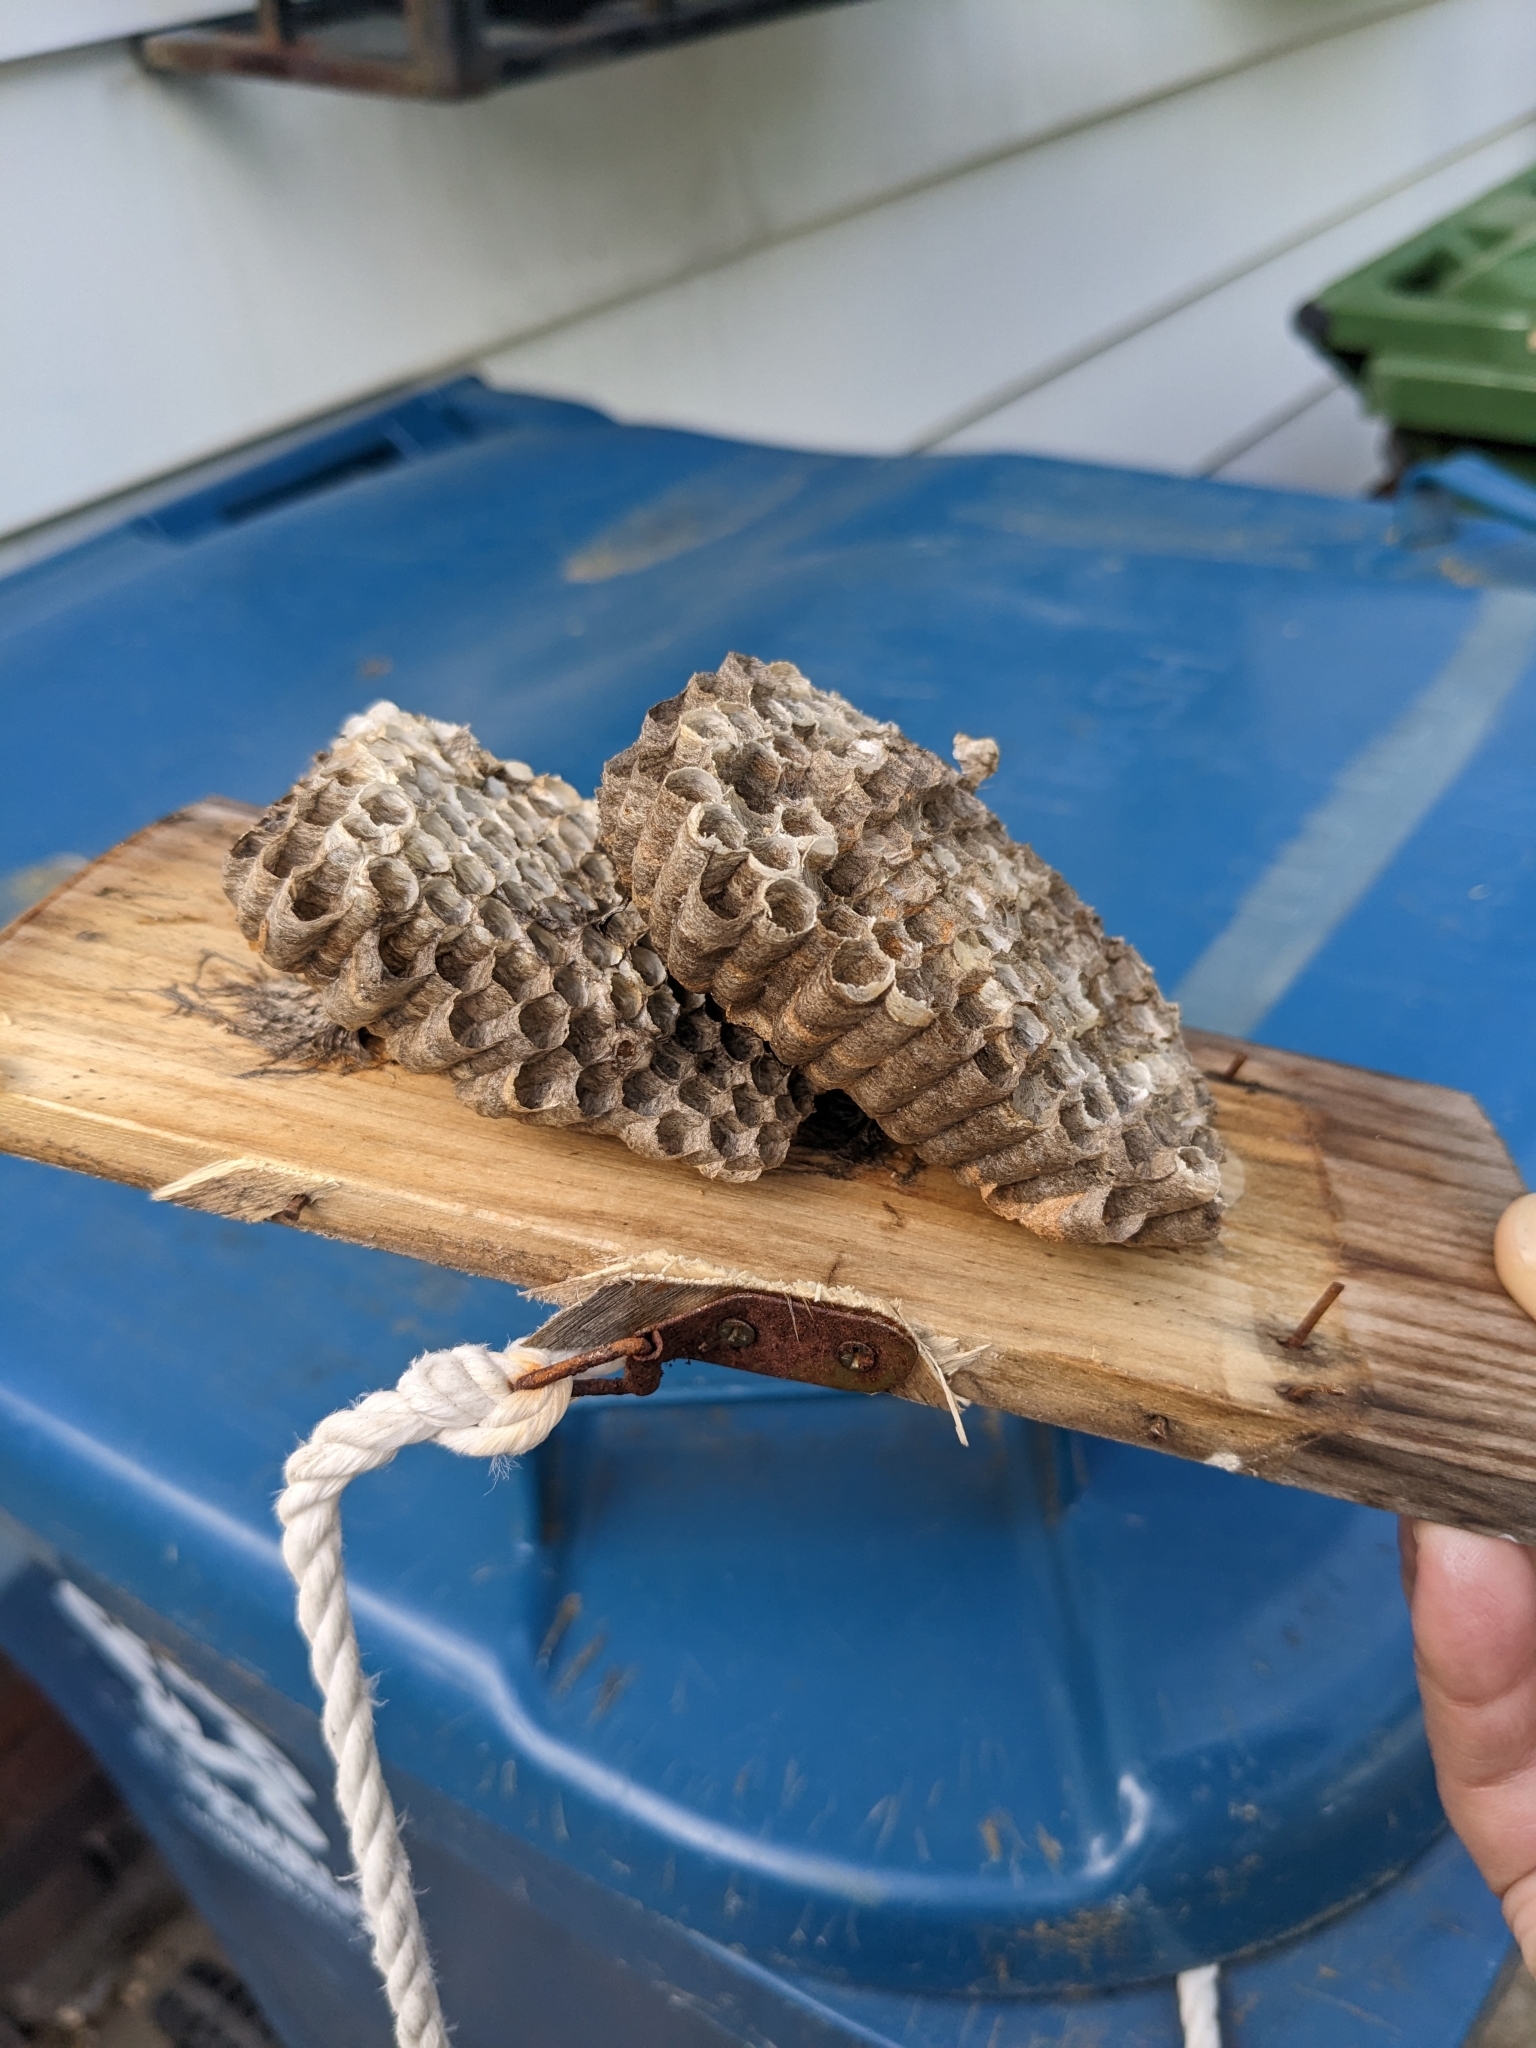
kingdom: Animalia
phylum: Arthropoda
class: Insecta
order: Hymenoptera
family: Eumenidae
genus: Polistes
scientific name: Polistes
